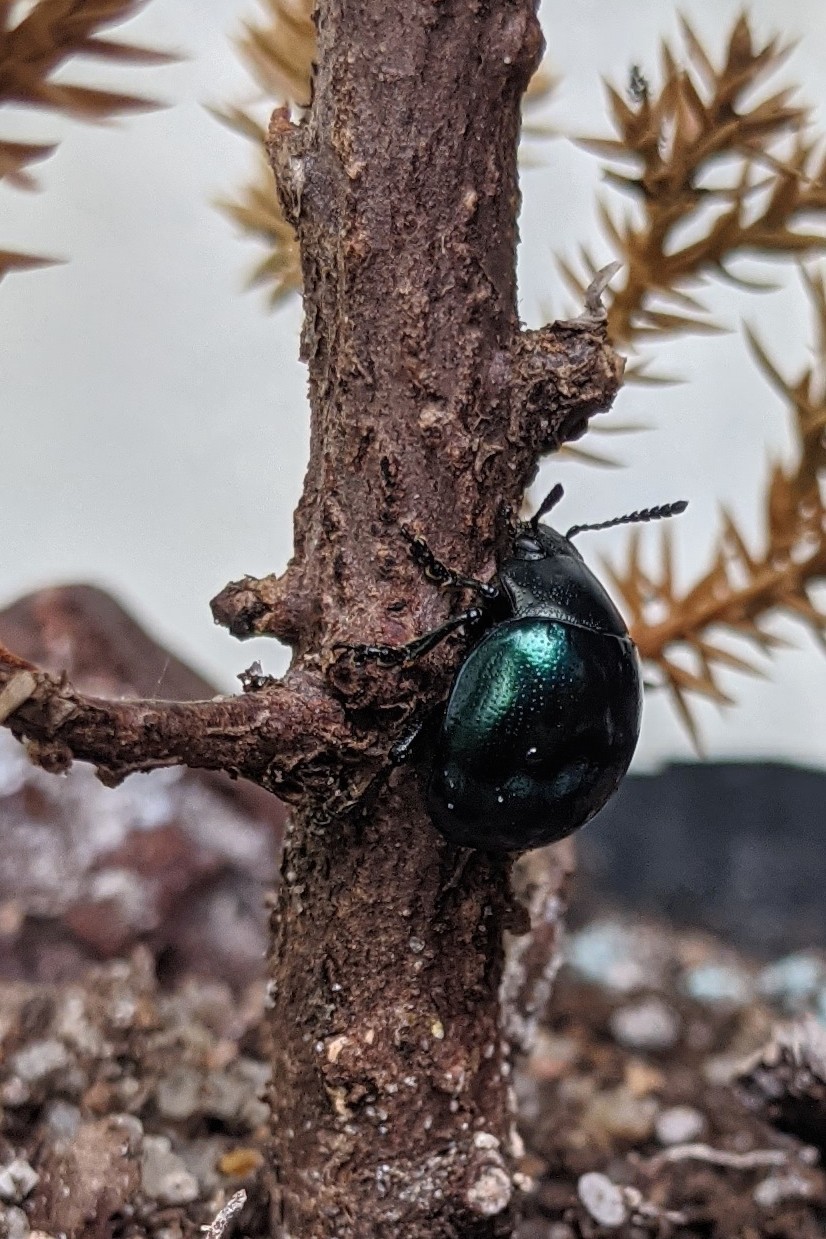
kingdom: Animalia
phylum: Arthropoda
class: Insecta
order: Coleoptera
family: Chrysomelidae
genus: Leptinotarsa
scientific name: Leptinotarsa haldemani
